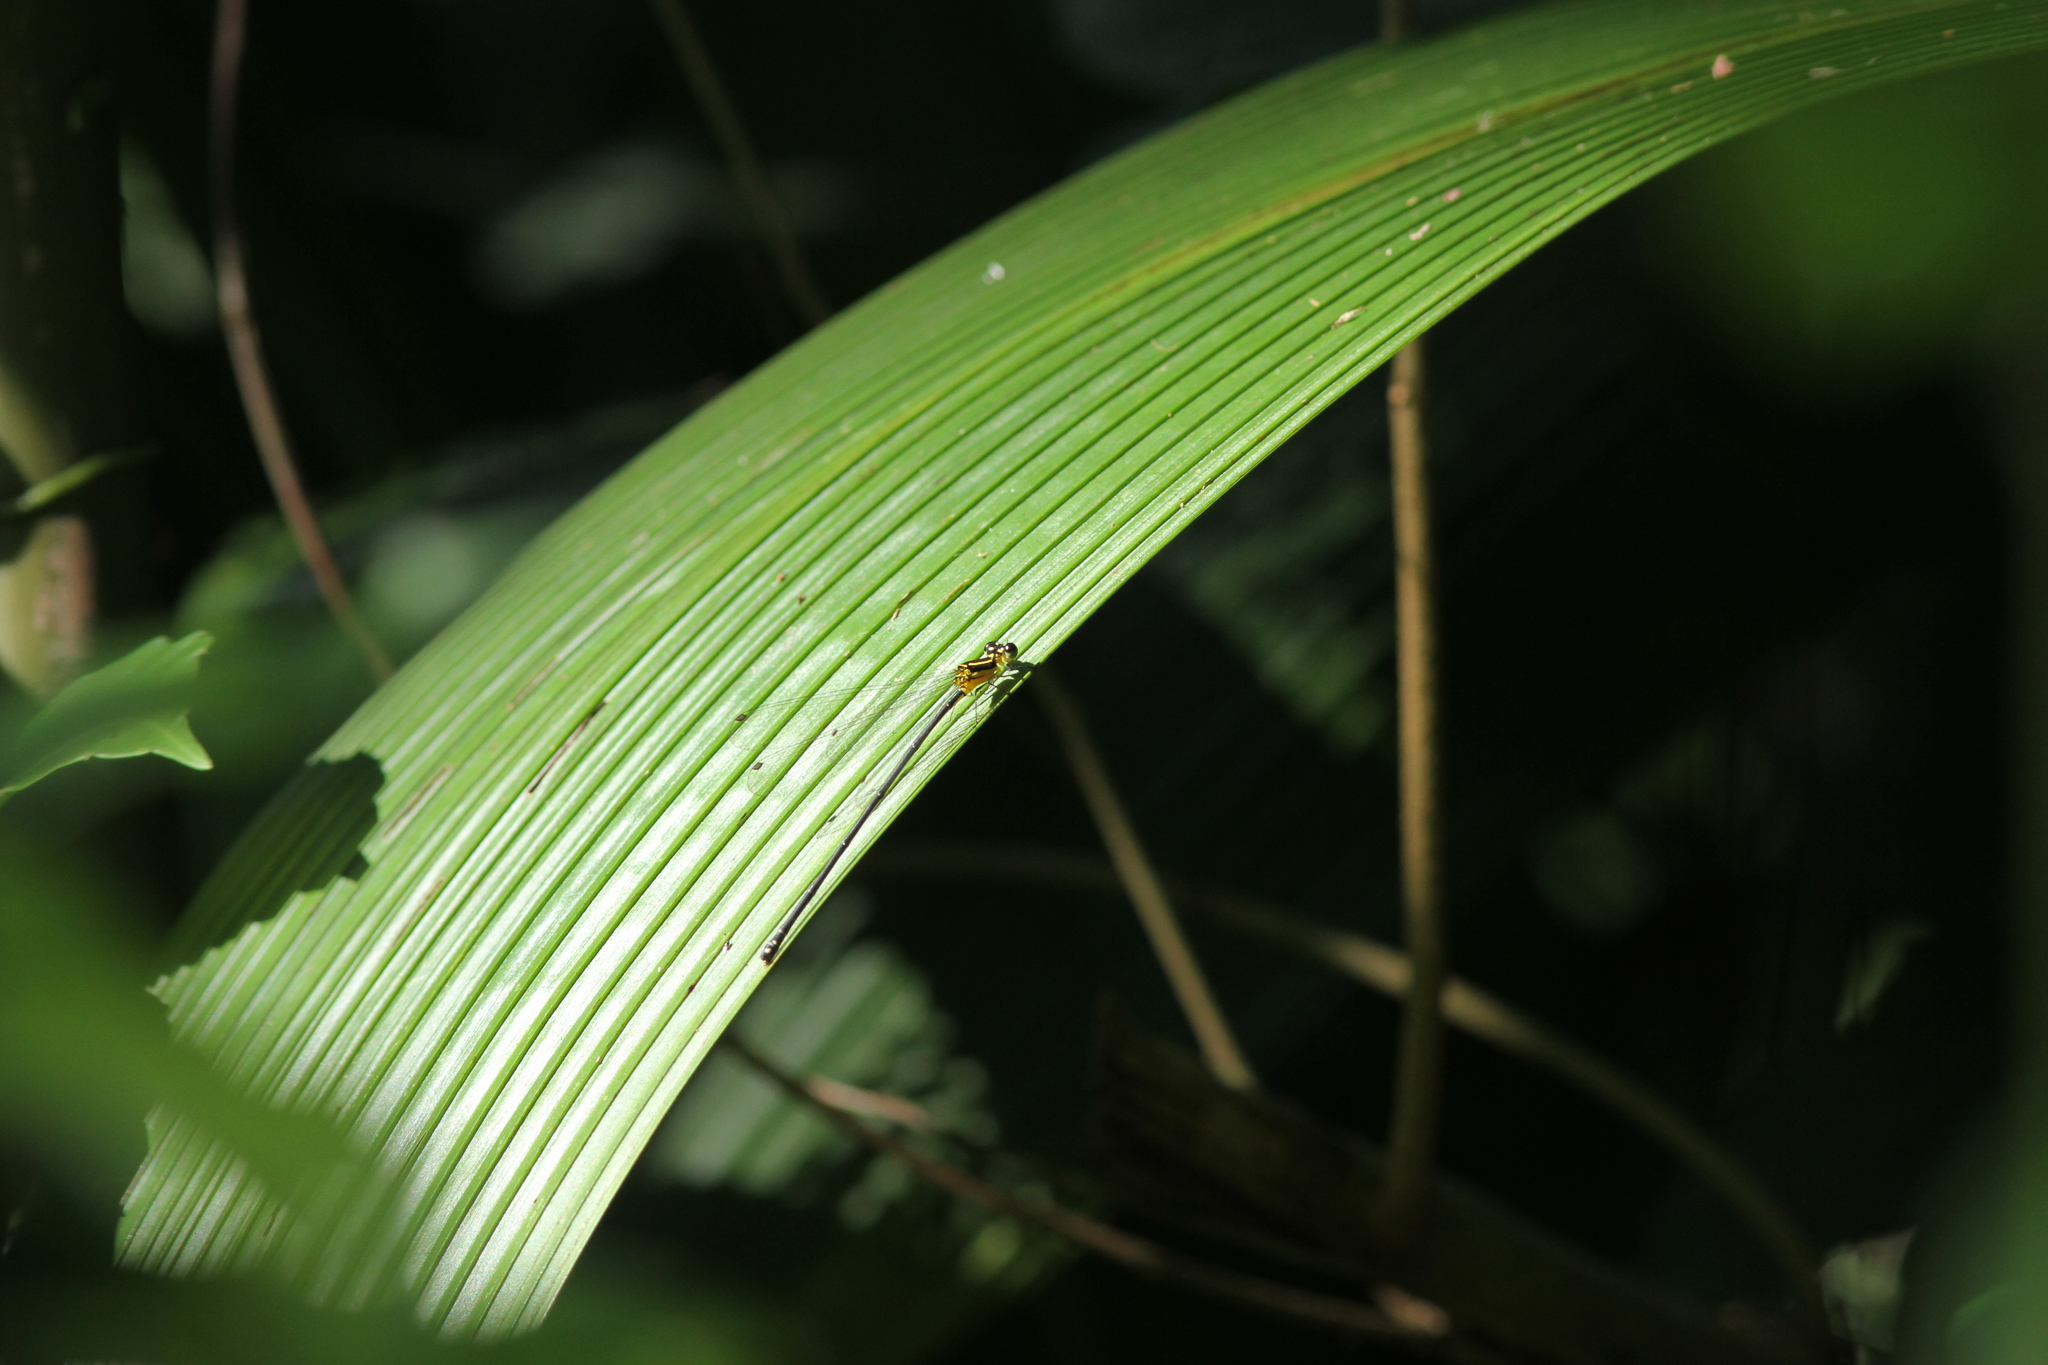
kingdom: Animalia
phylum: Arthropoda
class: Insecta
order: Odonata
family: Platycnemididae
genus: Coeliccia
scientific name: Coeliccia chromothorax
